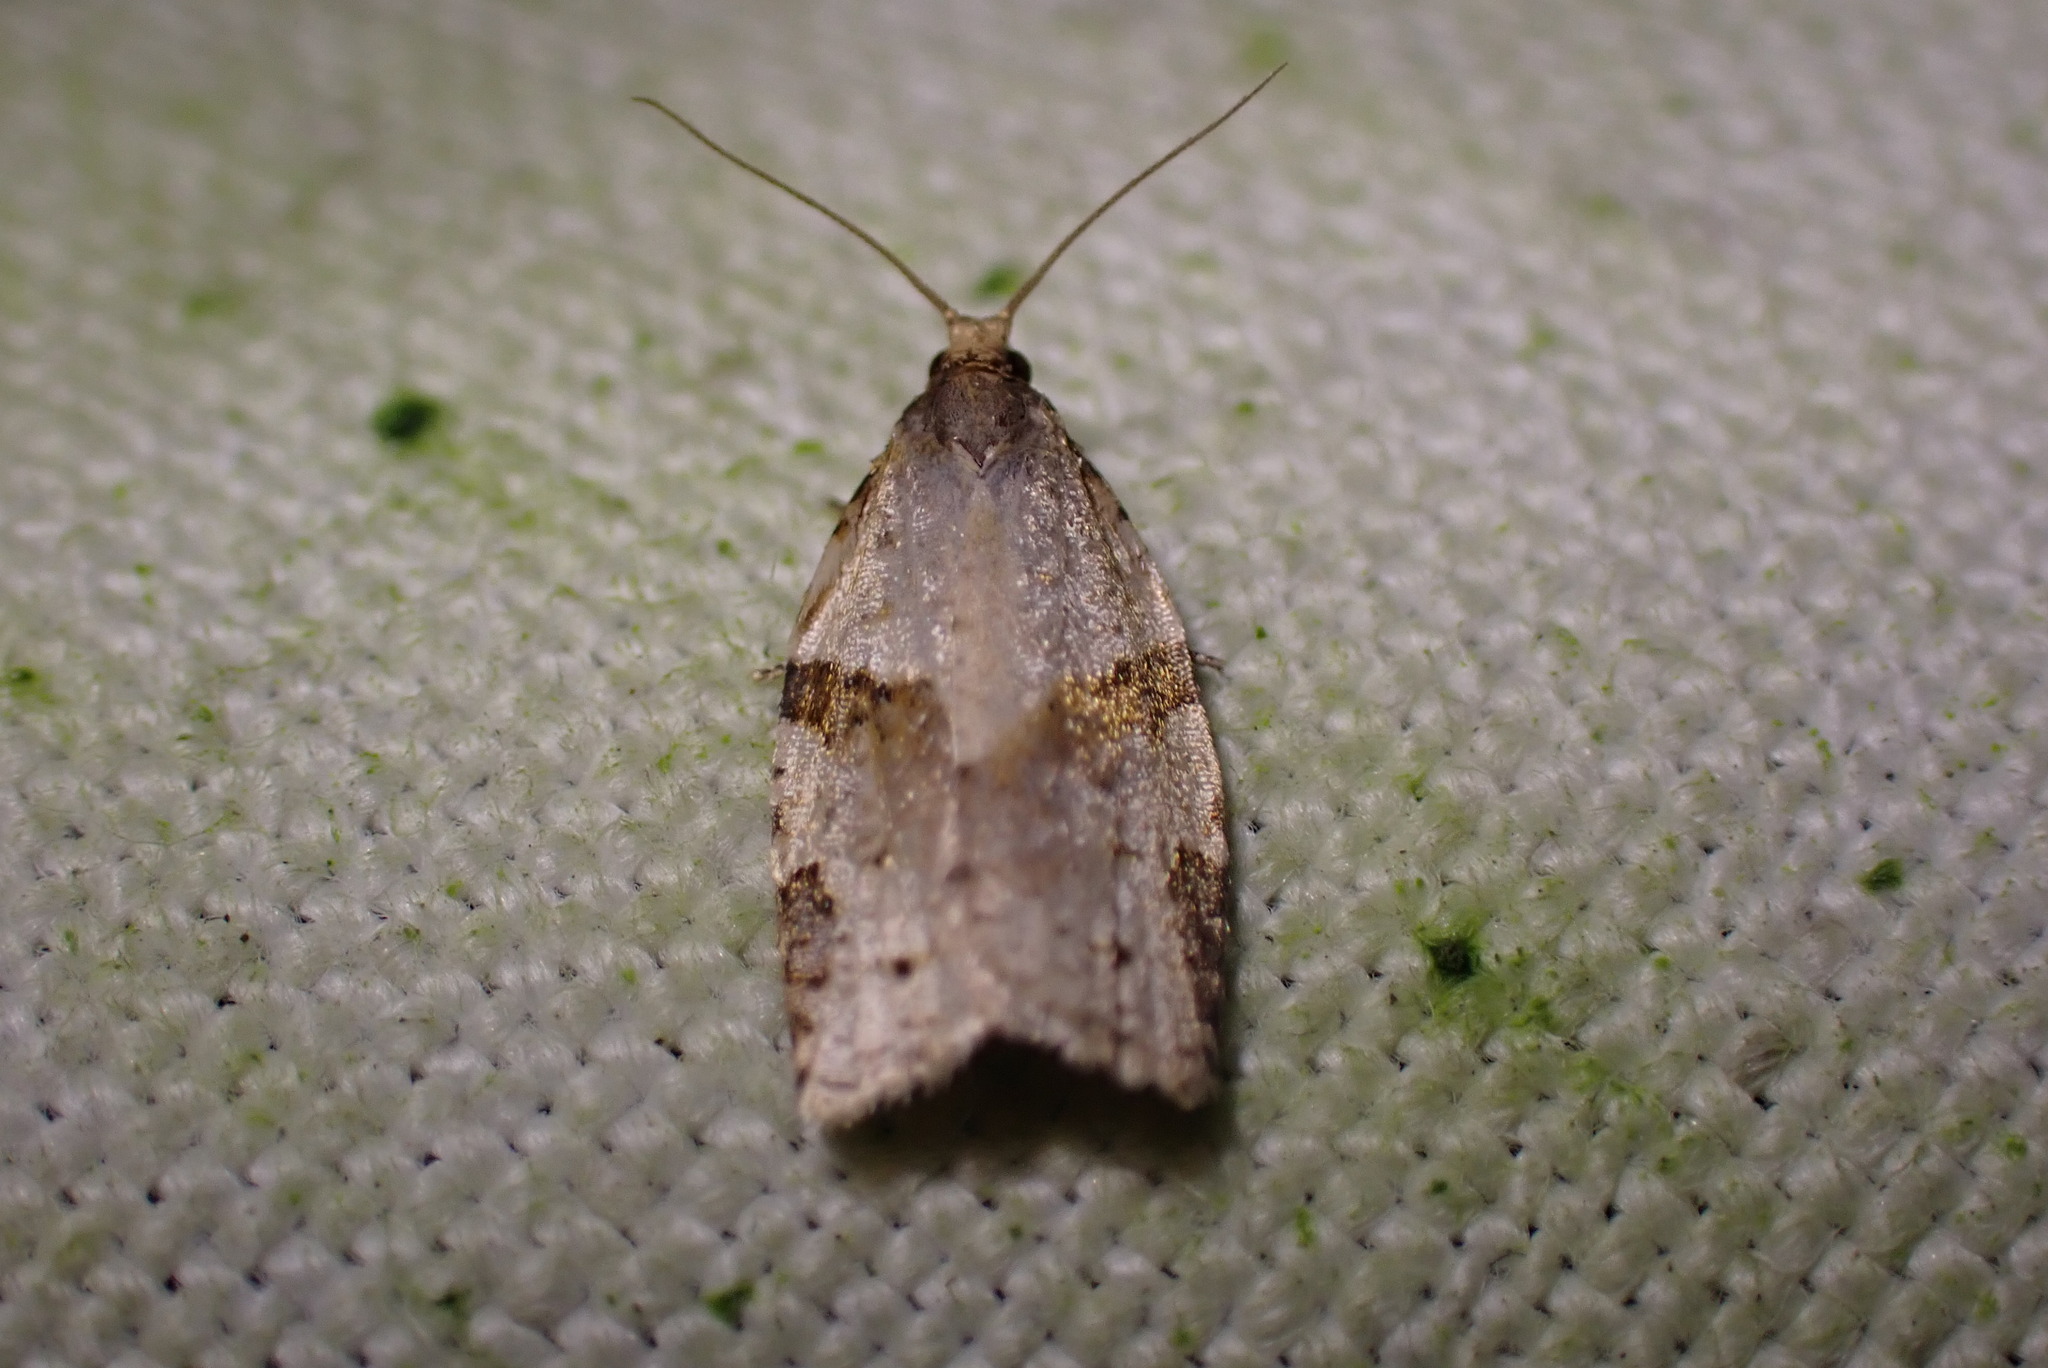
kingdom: Animalia
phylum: Arthropoda
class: Insecta
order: Lepidoptera
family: Tortricidae
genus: Clepsis
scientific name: Clepsis spectrana
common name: Cyclamen tortrix
